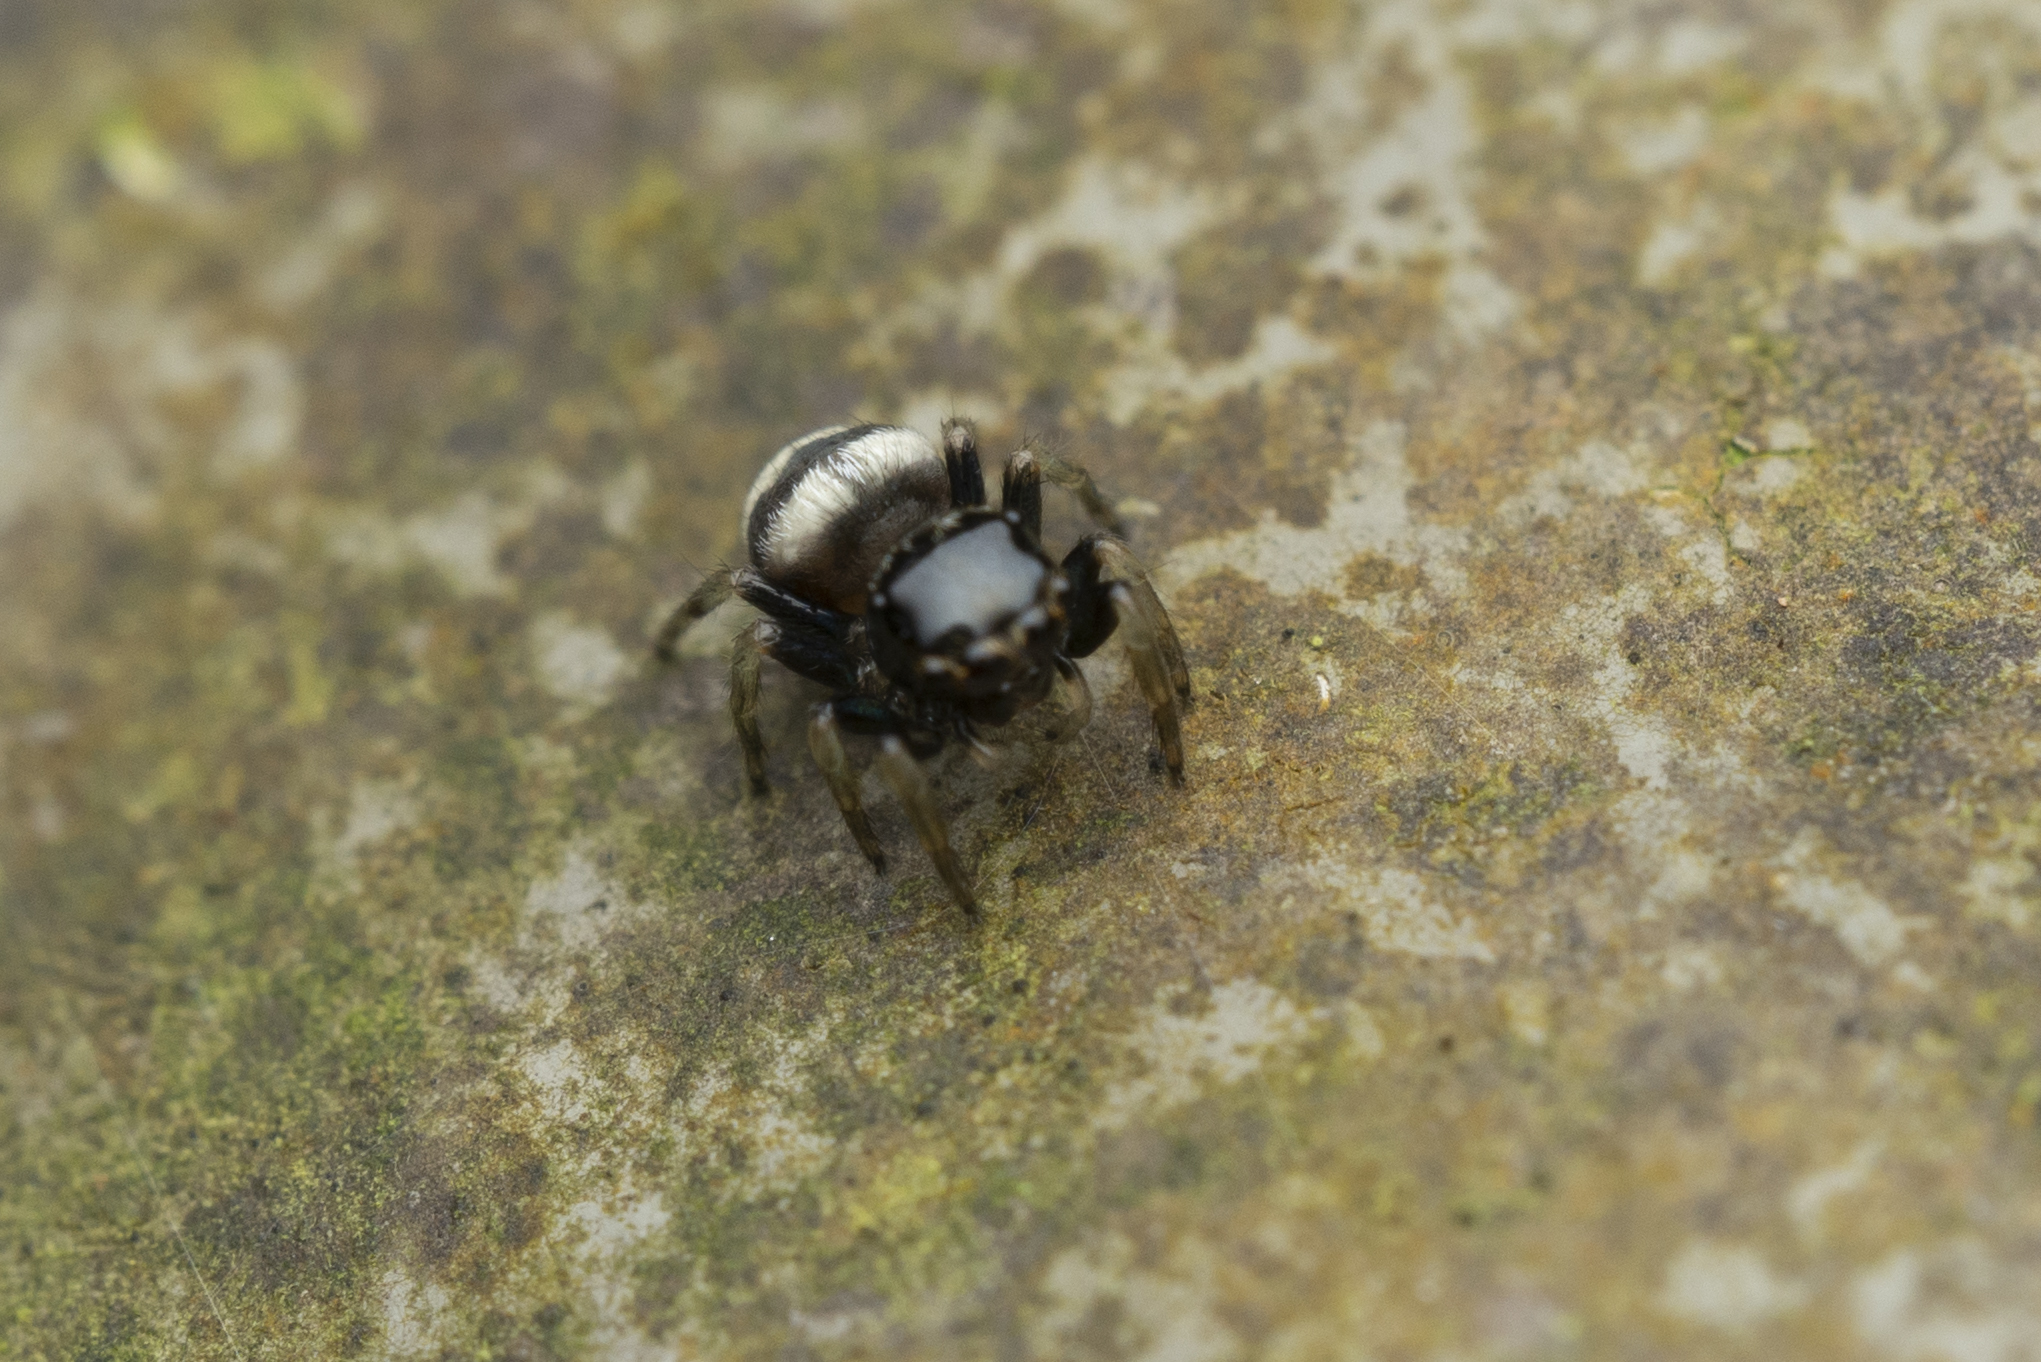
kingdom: Animalia
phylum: Arthropoda
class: Arachnida
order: Araneae
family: Salticidae
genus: Ptocasius
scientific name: Ptocasius strupifer
